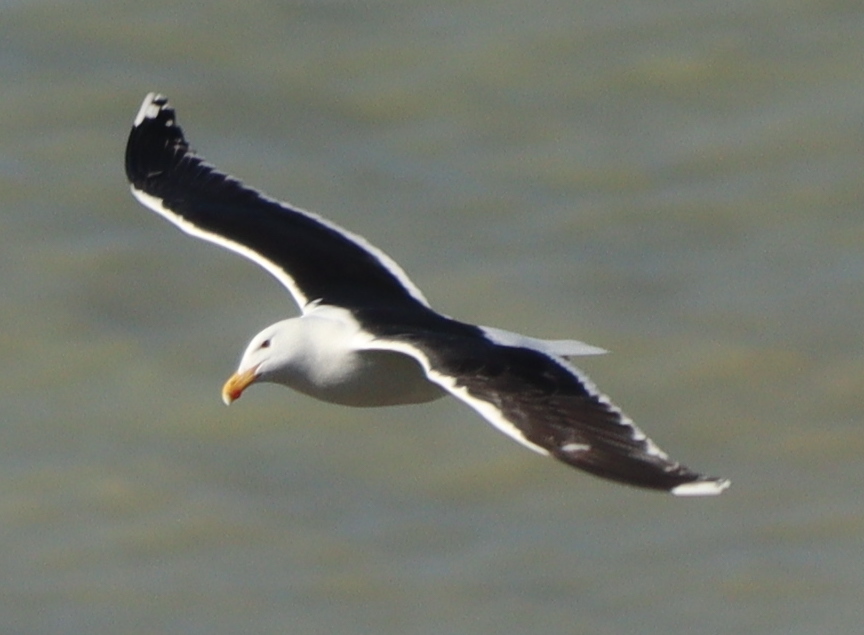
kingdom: Animalia
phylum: Chordata
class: Aves
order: Charadriiformes
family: Laridae
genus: Larus
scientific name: Larus marinus
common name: Great black-backed gull
